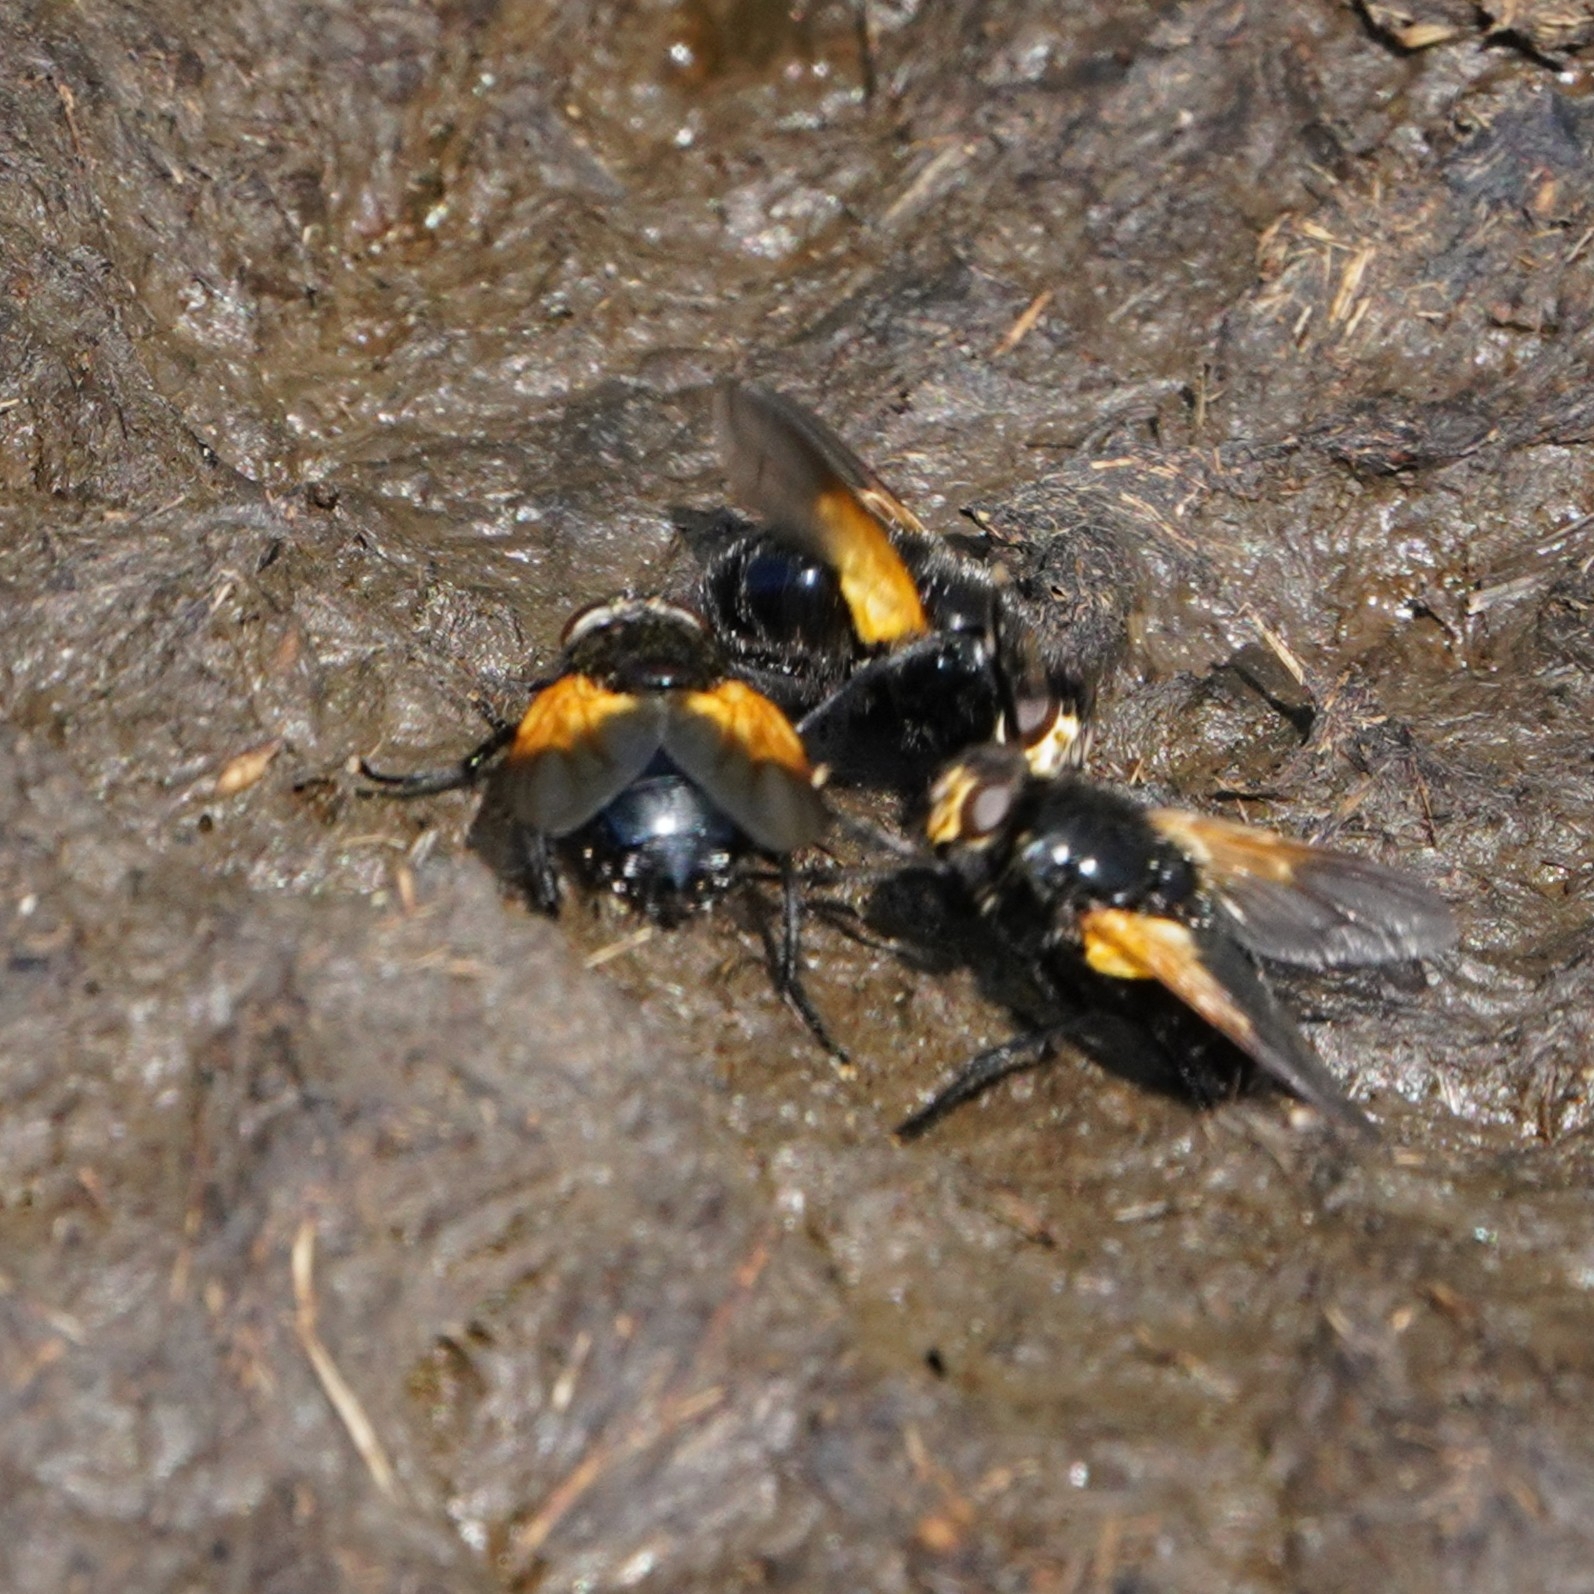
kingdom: Animalia
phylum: Arthropoda
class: Insecta
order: Diptera
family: Muscidae
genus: Mesembrina
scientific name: Mesembrina meridiana
